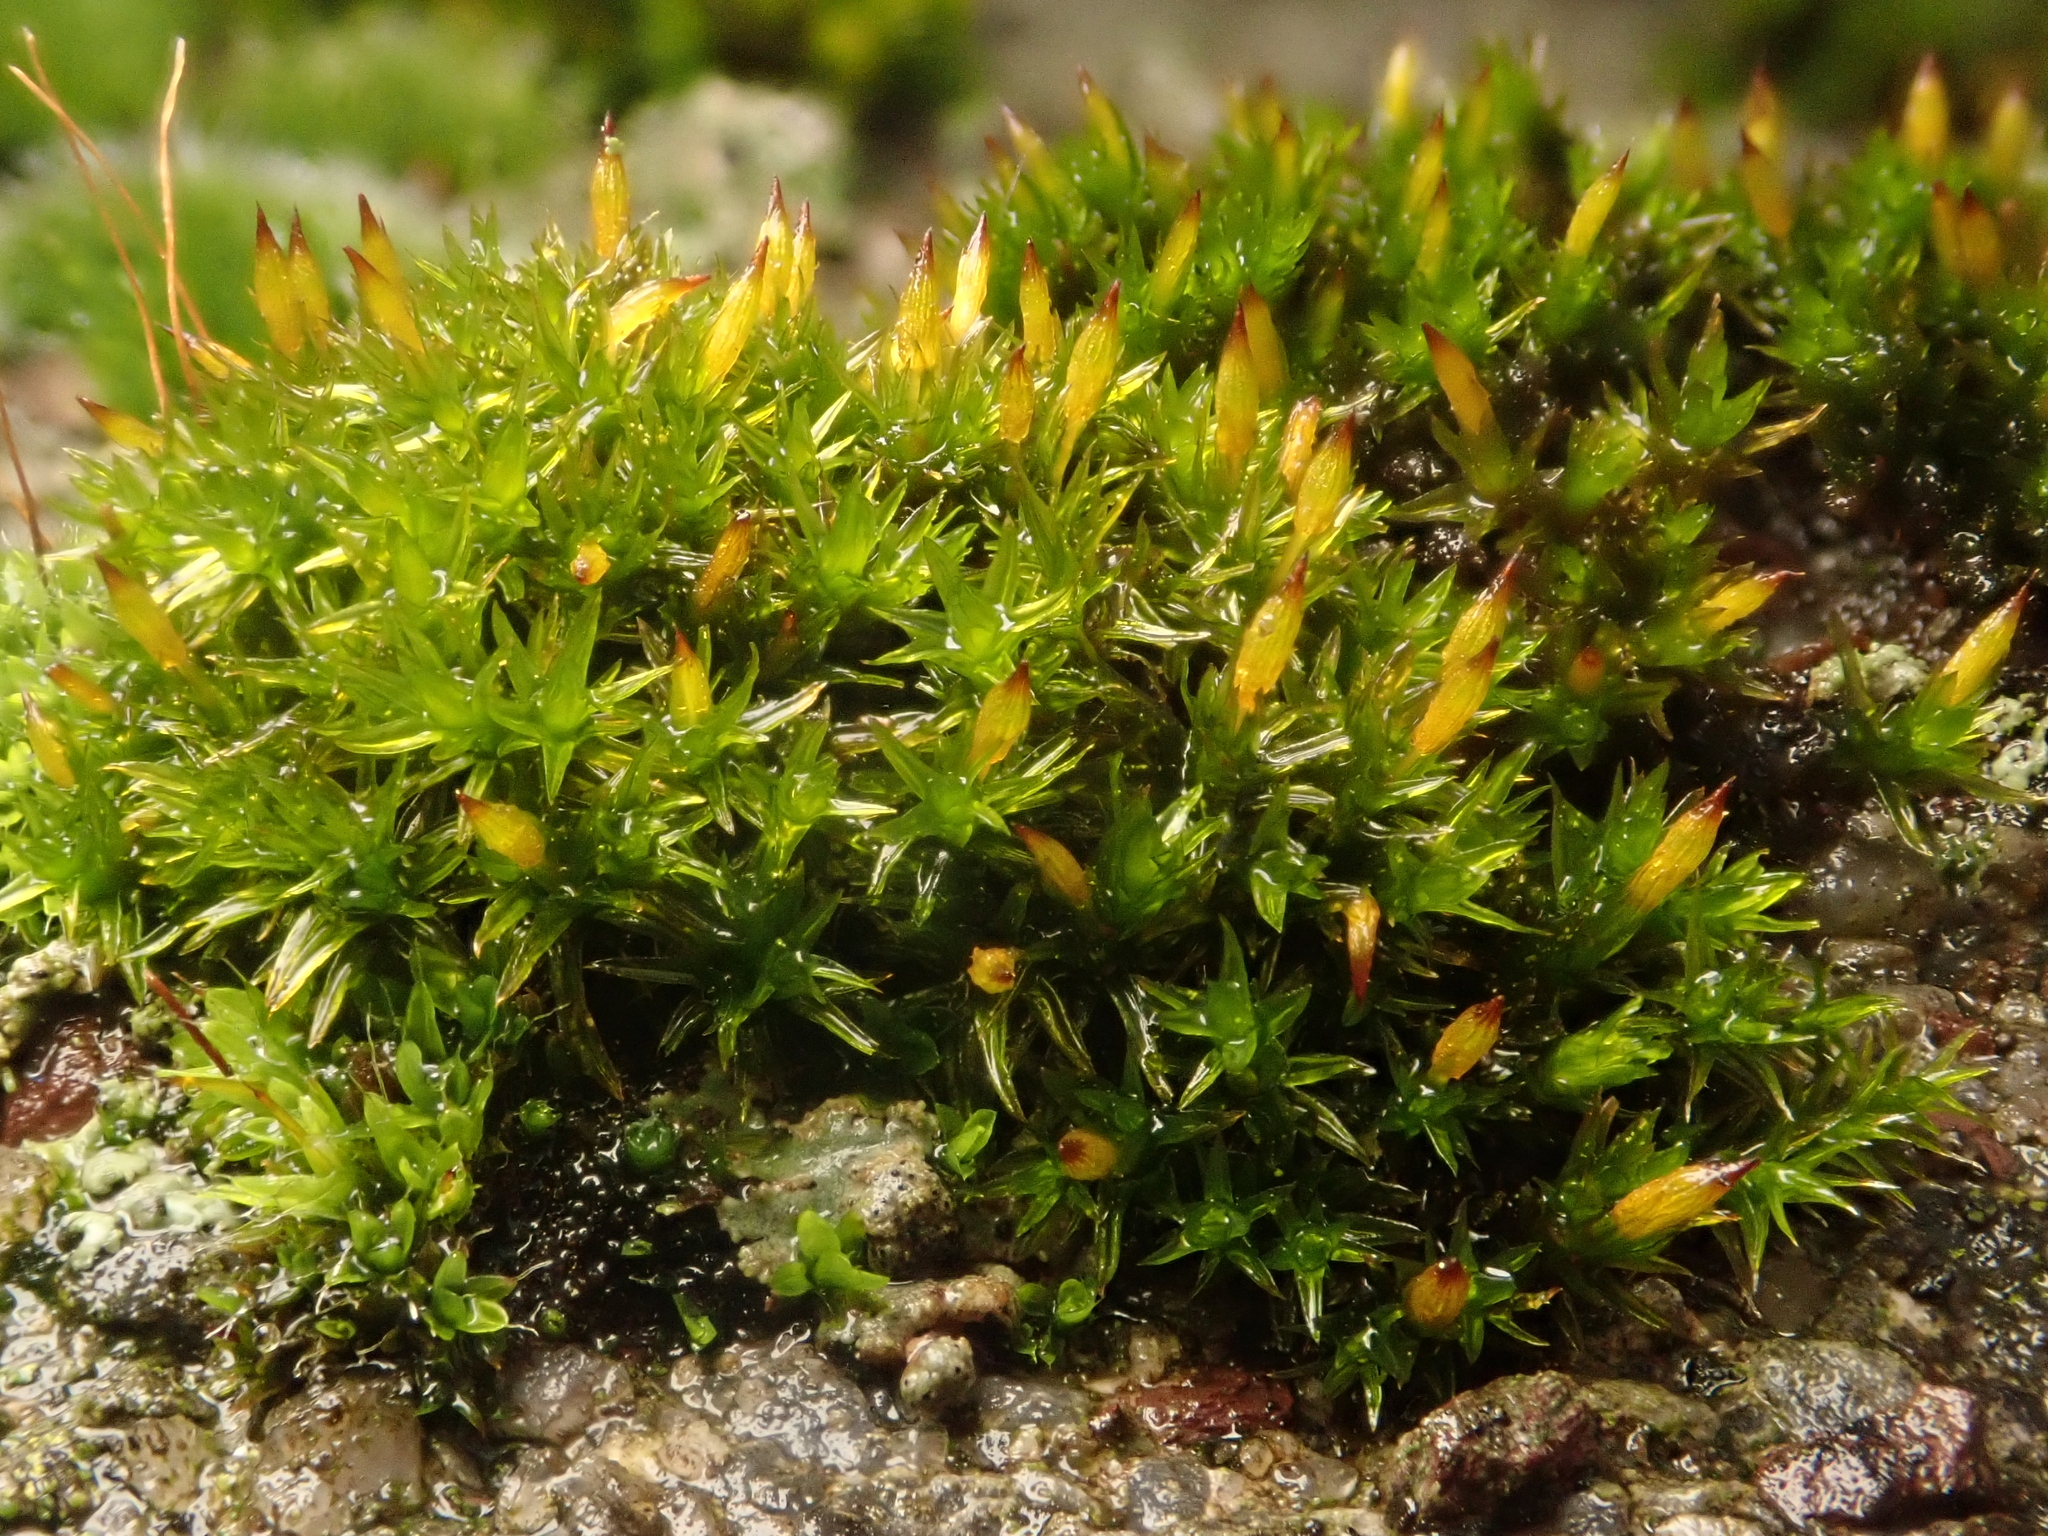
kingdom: Plantae
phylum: Bryophyta
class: Bryopsida
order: Orthotrichales
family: Orthotrichaceae
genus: Orthotrichum
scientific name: Orthotrichum anomalum
